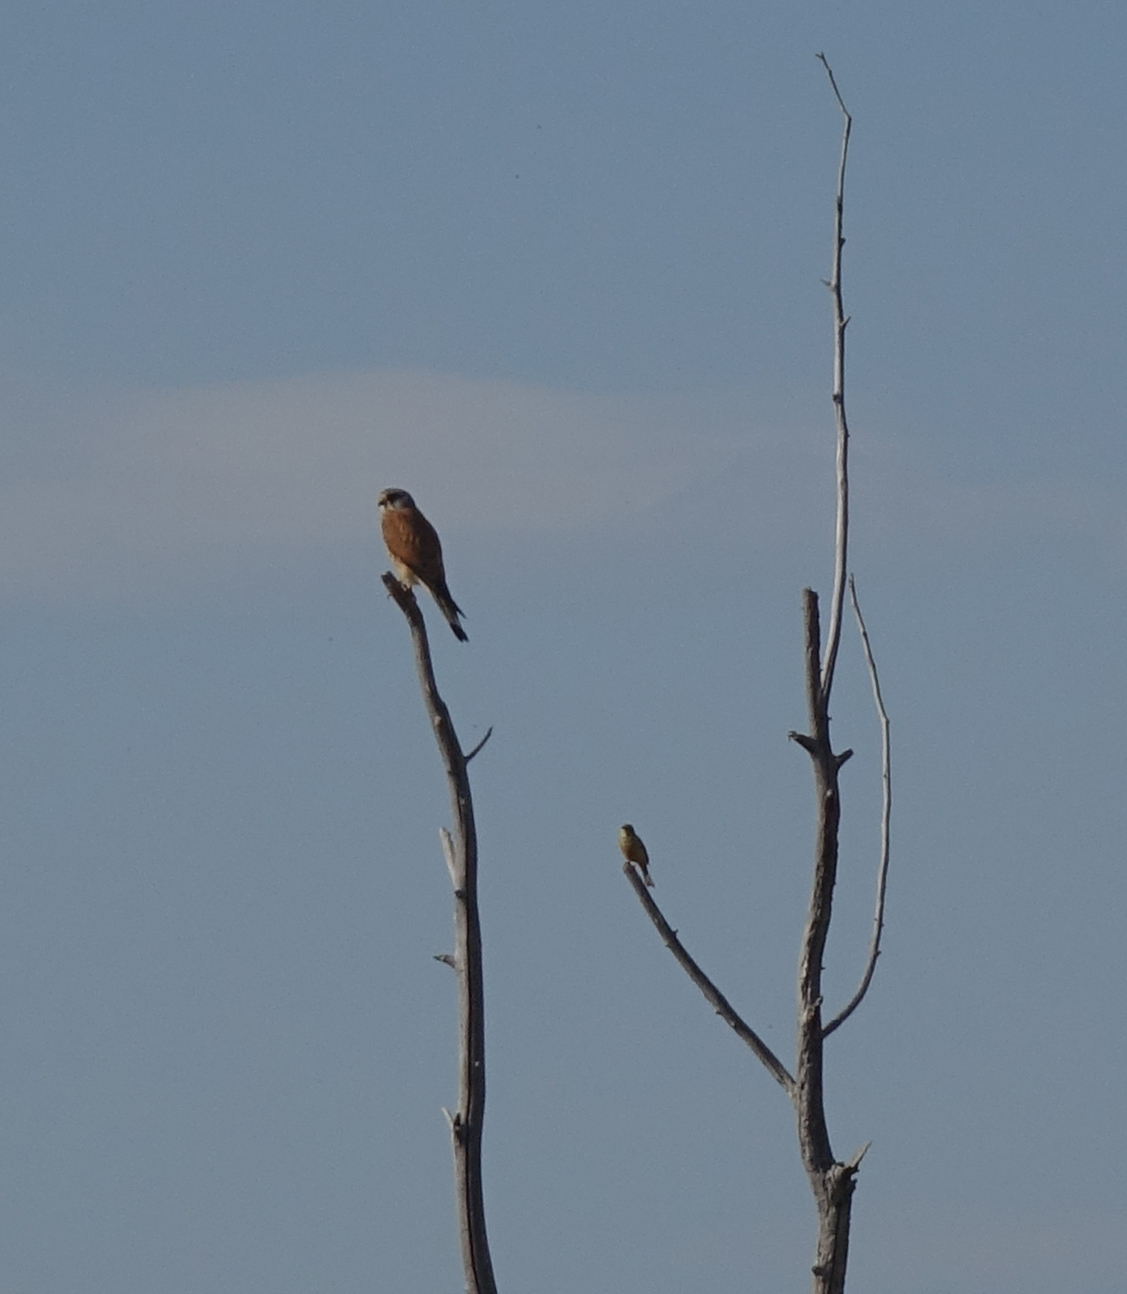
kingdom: Animalia
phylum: Chordata
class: Aves
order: Falconiformes
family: Falconidae
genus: Falco
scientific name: Falco tinnunculus
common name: Common kestrel
